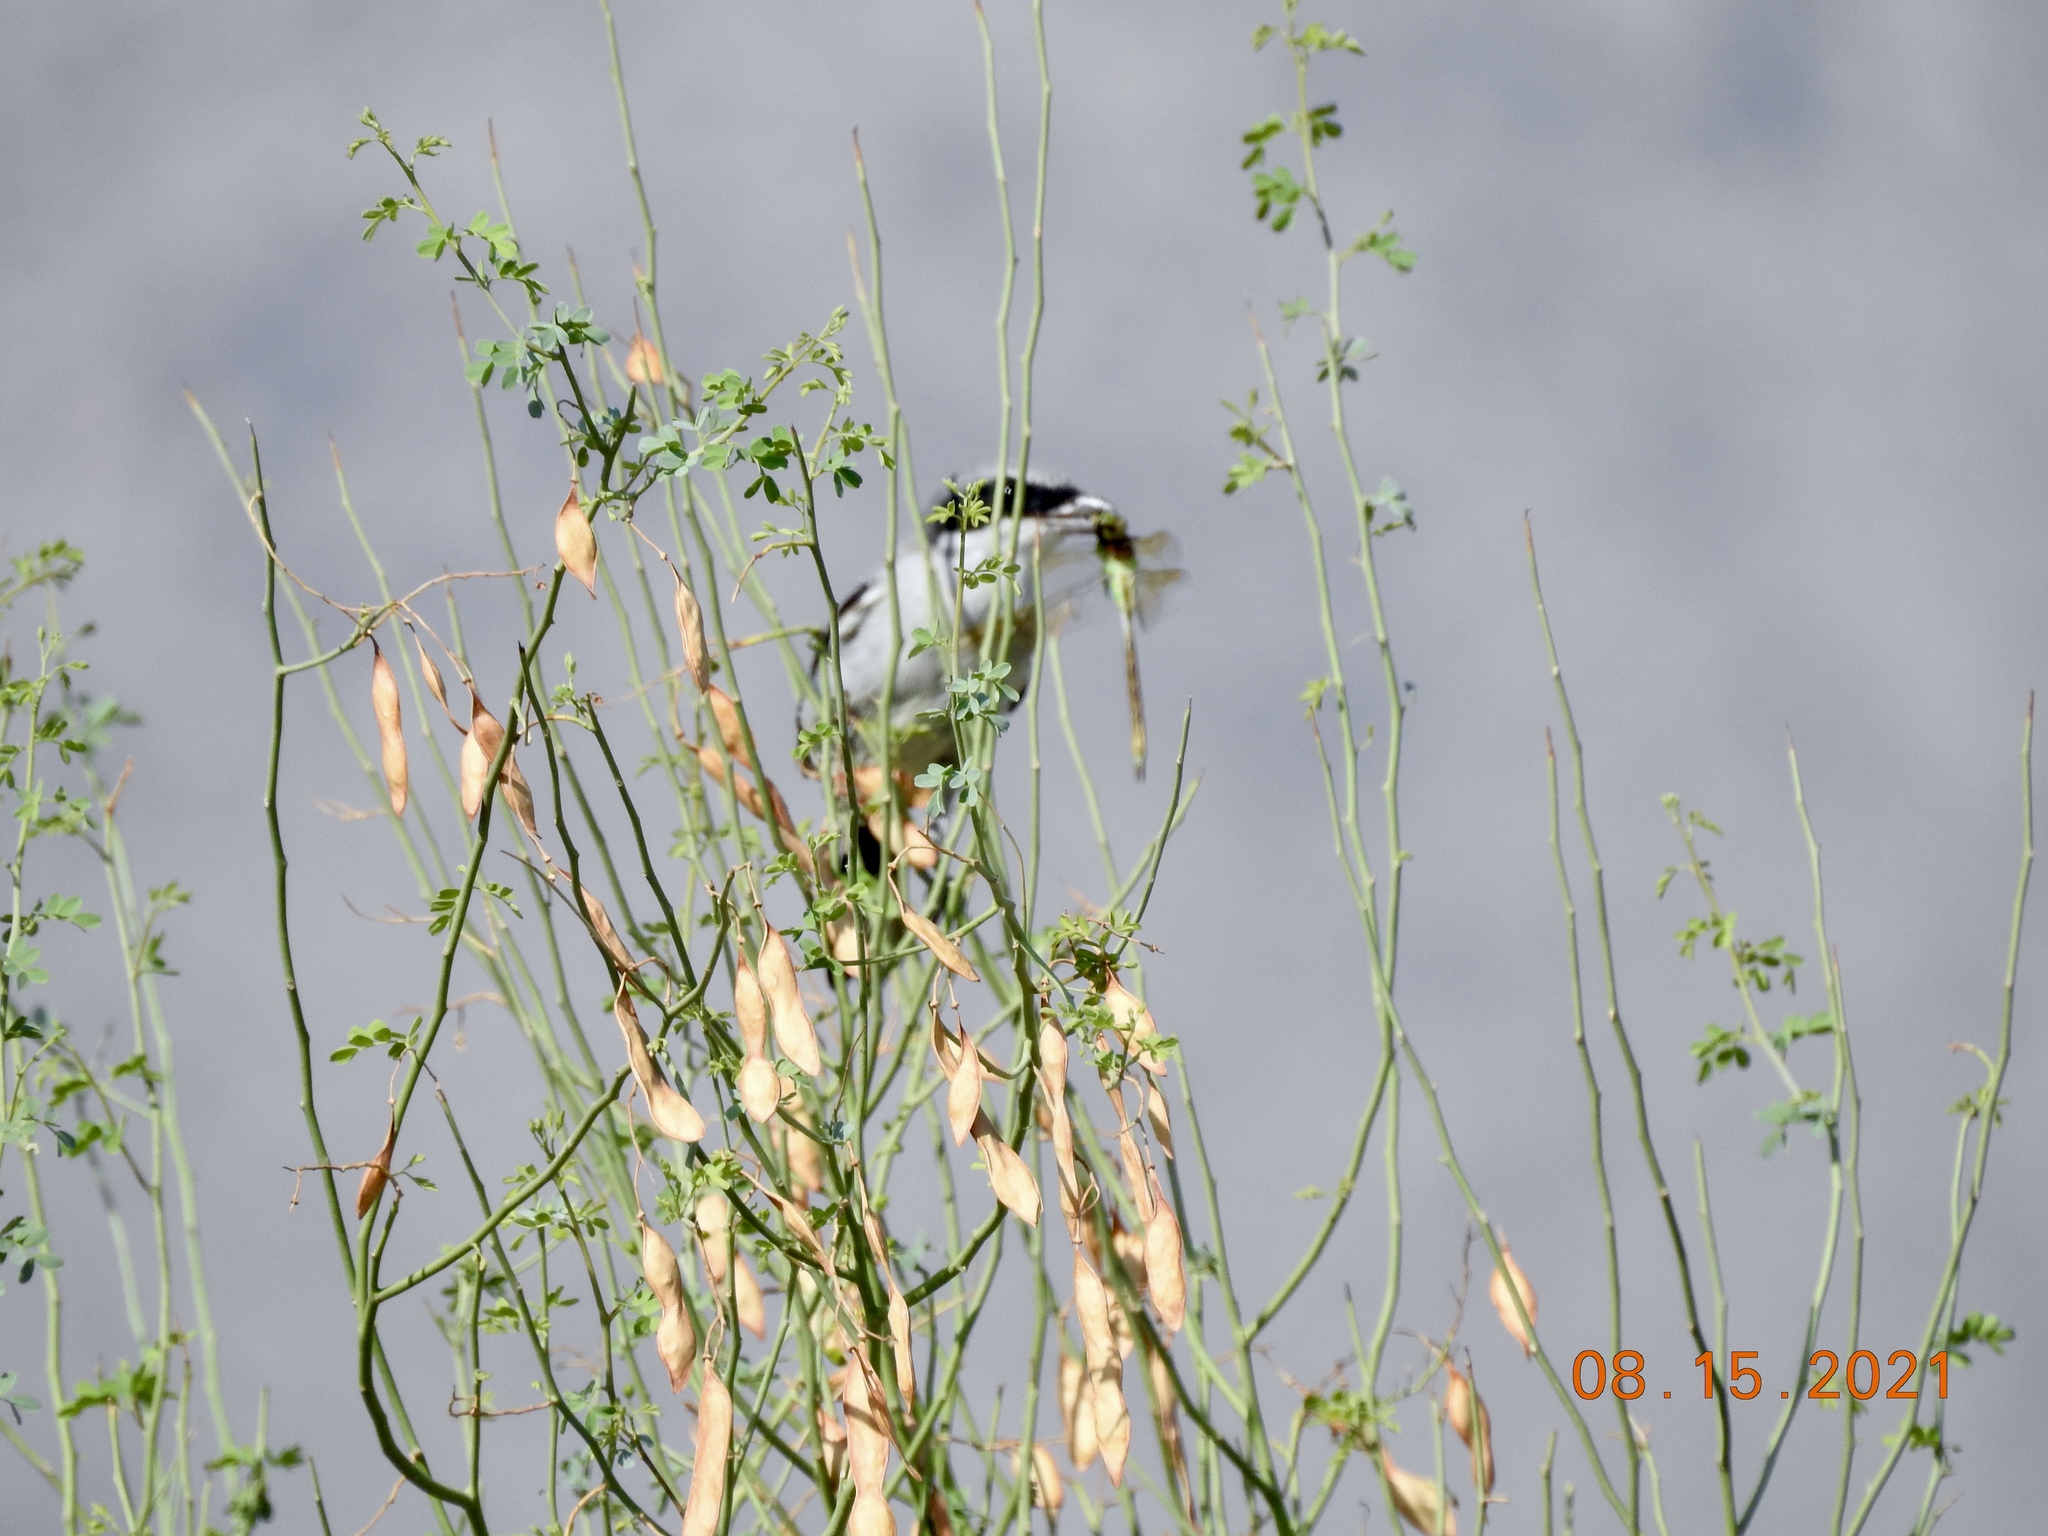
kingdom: Animalia
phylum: Chordata
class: Aves
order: Passeriformes
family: Laniidae
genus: Lanius
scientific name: Lanius ludovicianus
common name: Loggerhead shrike
